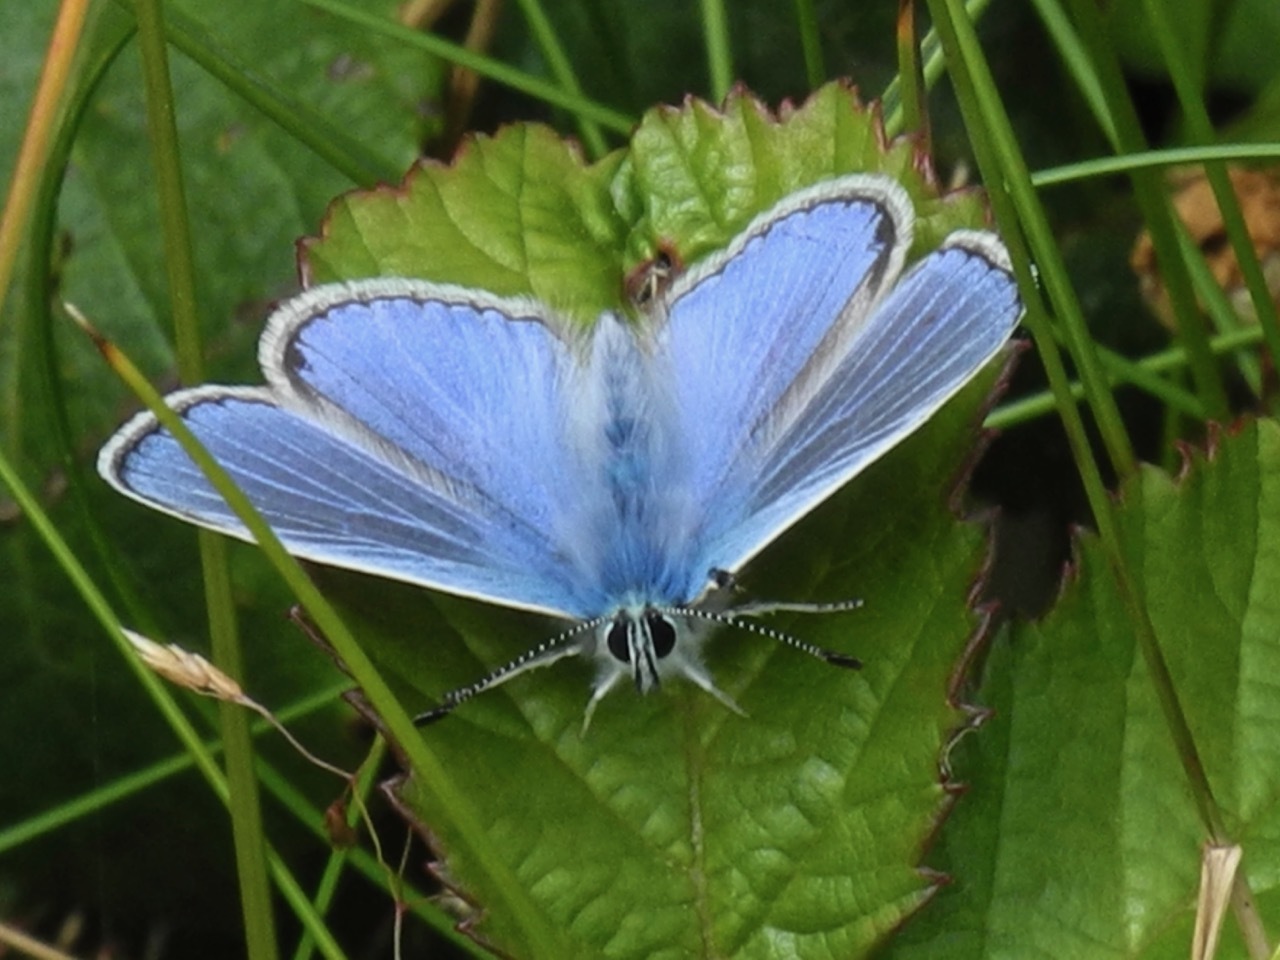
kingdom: Animalia
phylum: Arthropoda
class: Insecta
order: Lepidoptera
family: Lycaenidae
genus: Polyommatus
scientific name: Polyommatus icarus
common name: Common blue
